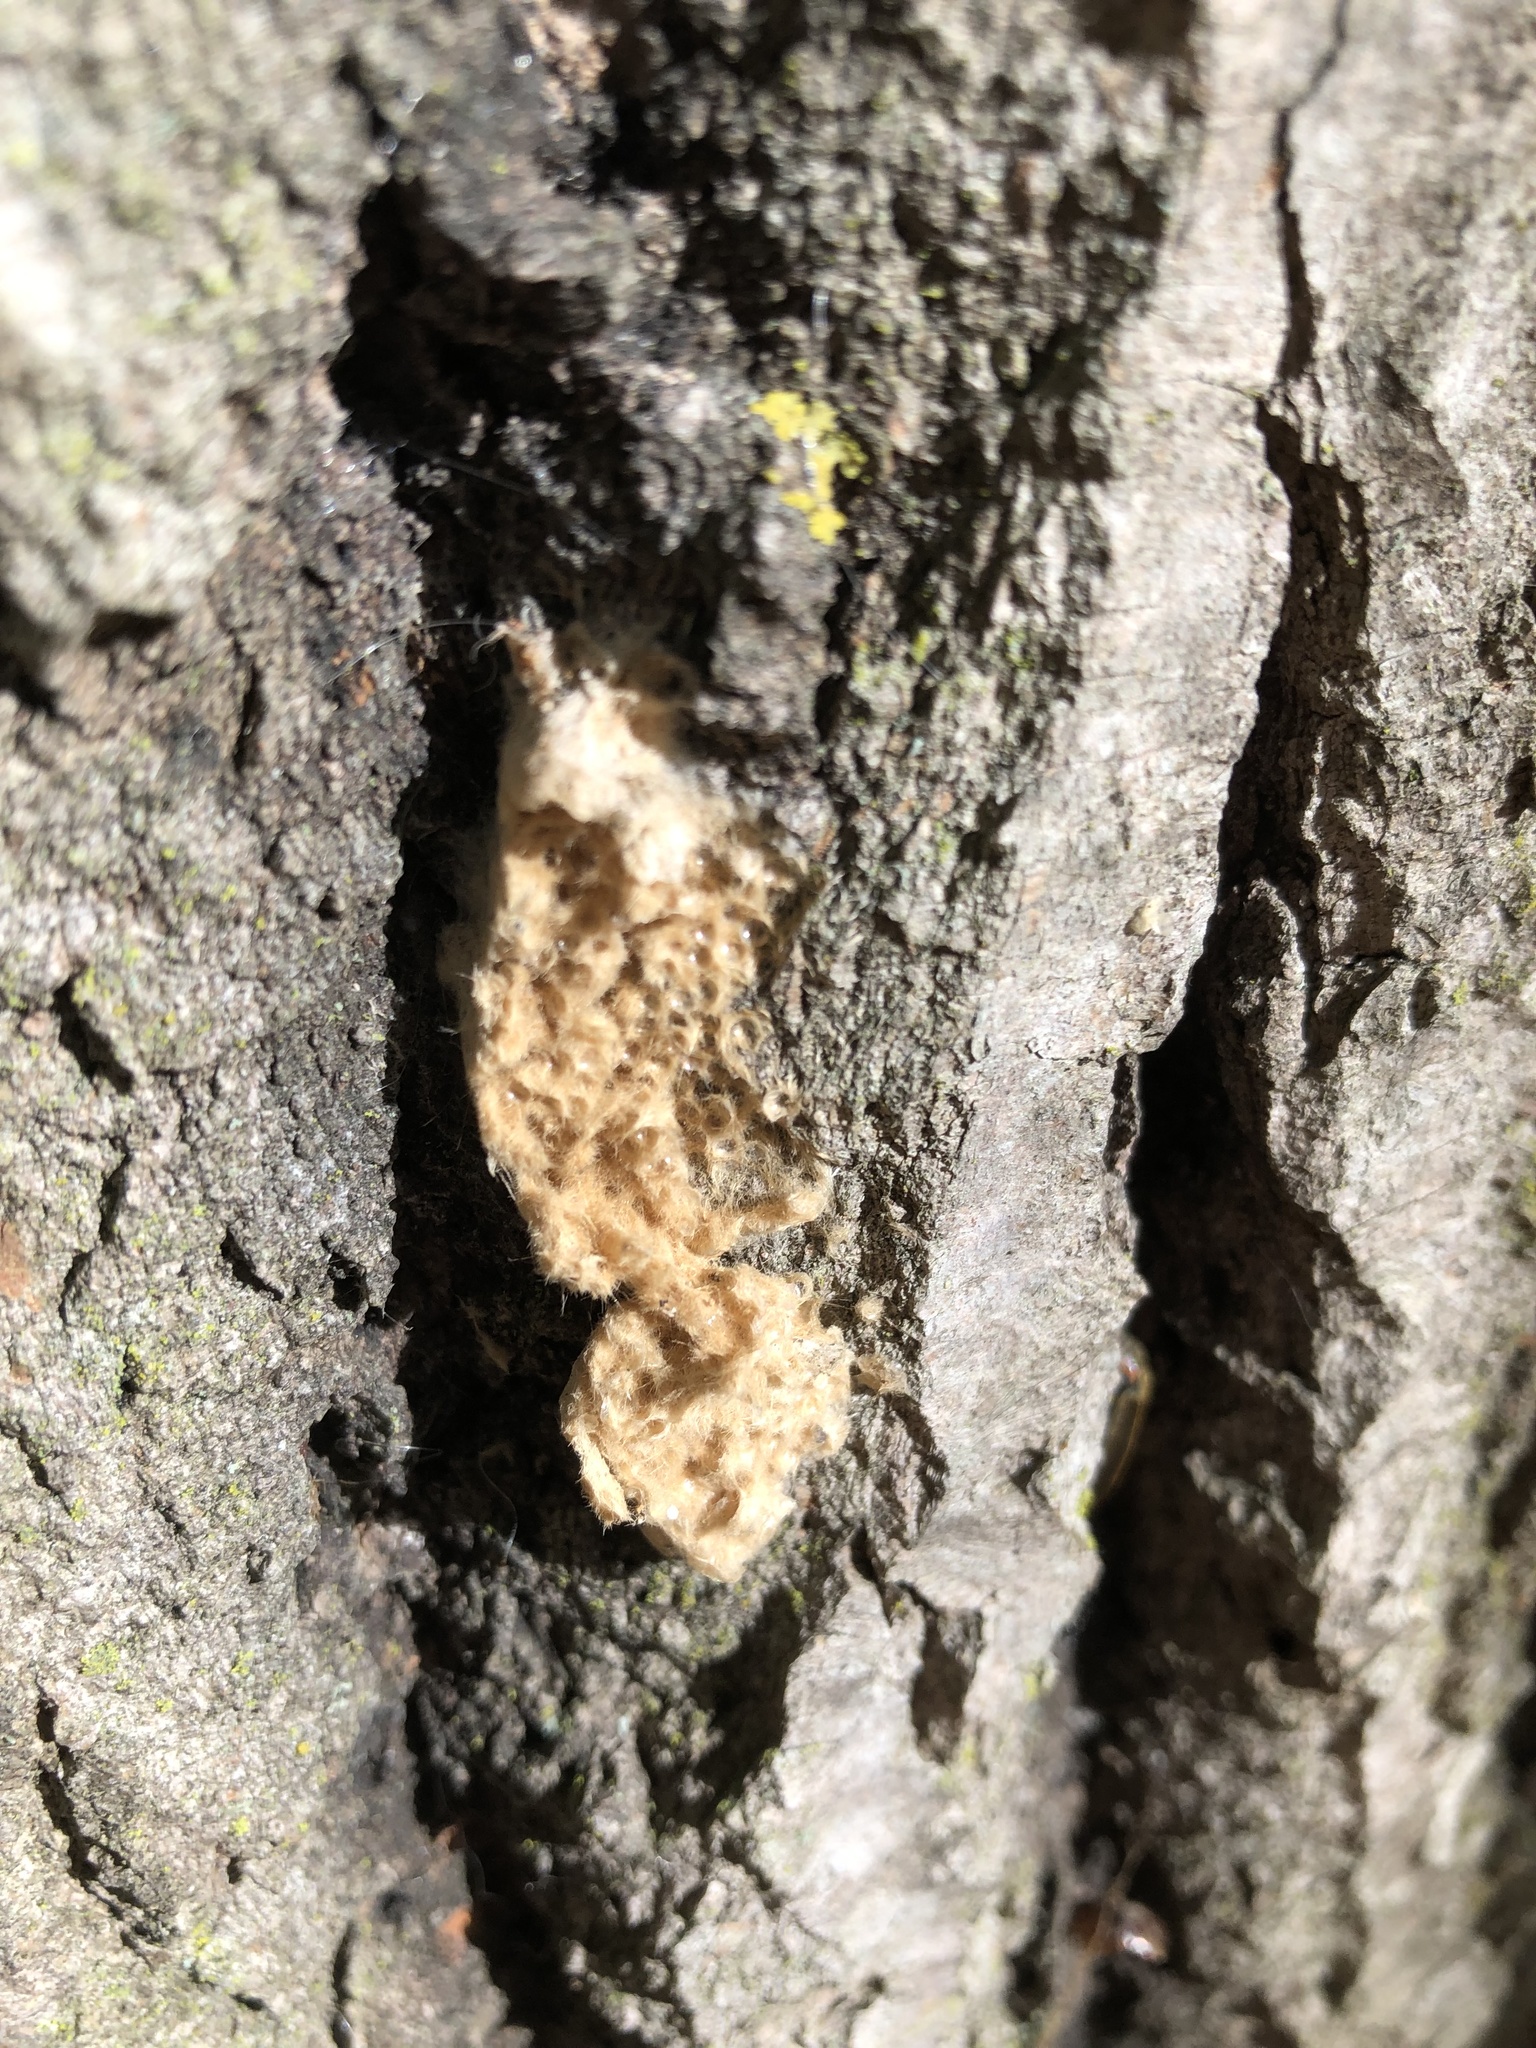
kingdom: Animalia
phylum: Arthropoda
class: Insecta
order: Lepidoptera
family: Erebidae
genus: Lymantria
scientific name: Lymantria dispar
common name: Gypsy moth
